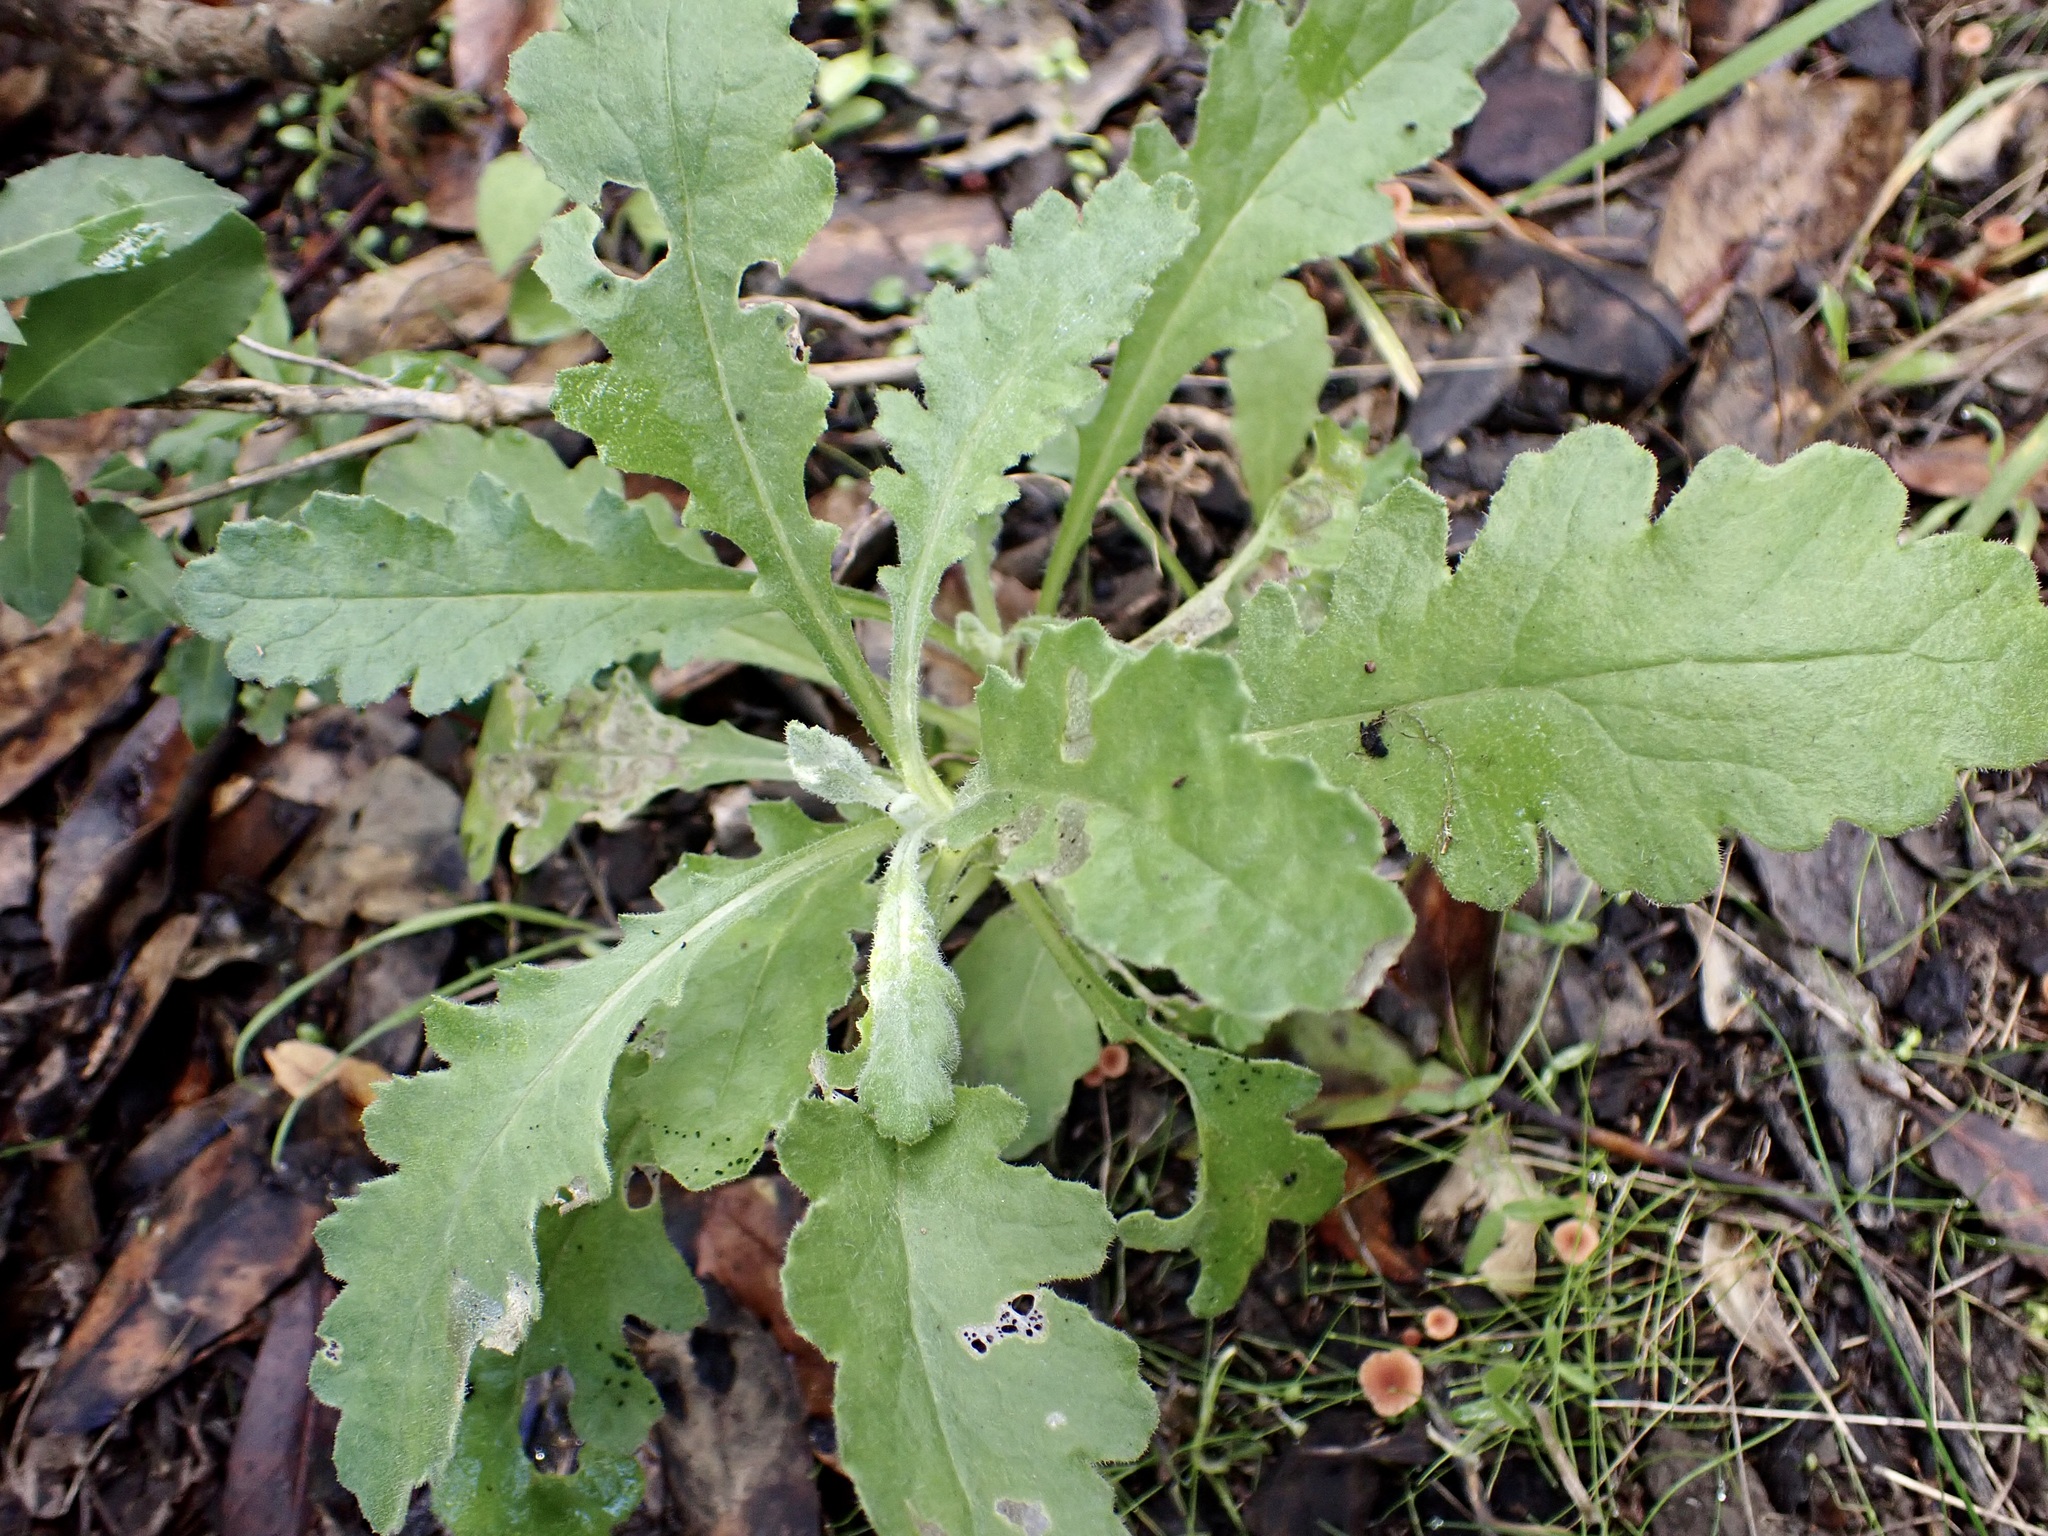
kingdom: Plantae
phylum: Tracheophyta
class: Magnoliopsida
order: Asterales
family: Asteraceae
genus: Senecio
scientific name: Senecio glomeratus
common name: Cutleaf burnweed
